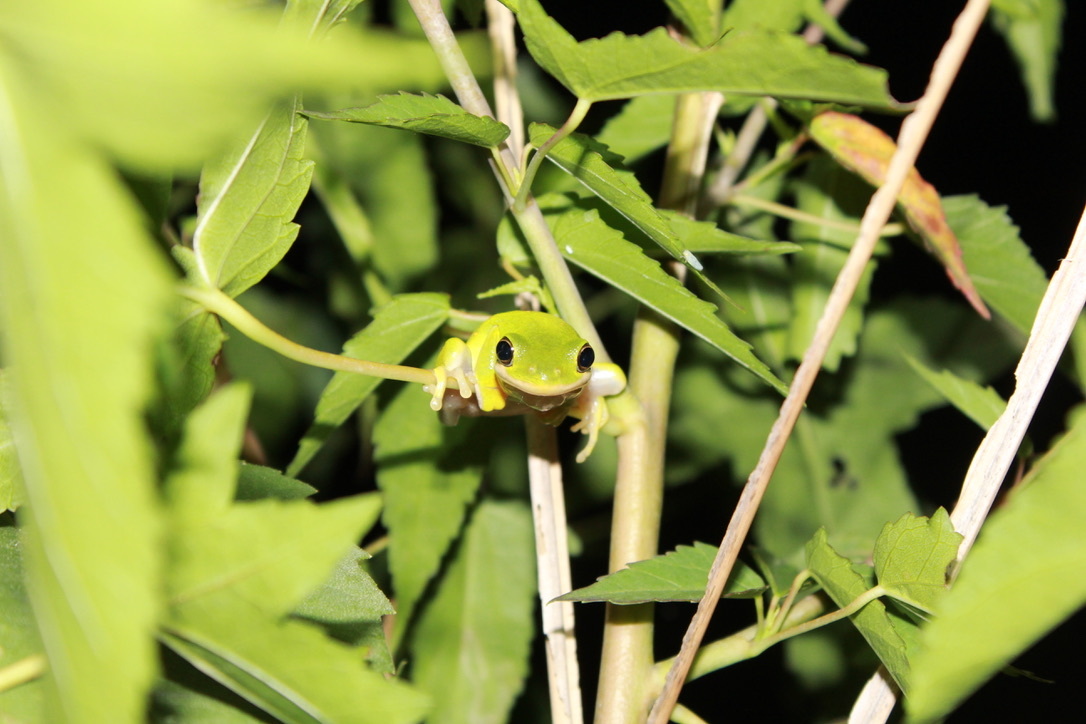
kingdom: Animalia
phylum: Chordata
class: Amphibia
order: Anura
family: Hylidae
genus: Dryophytes
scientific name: Dryophytes cinereus
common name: Green treefrog
